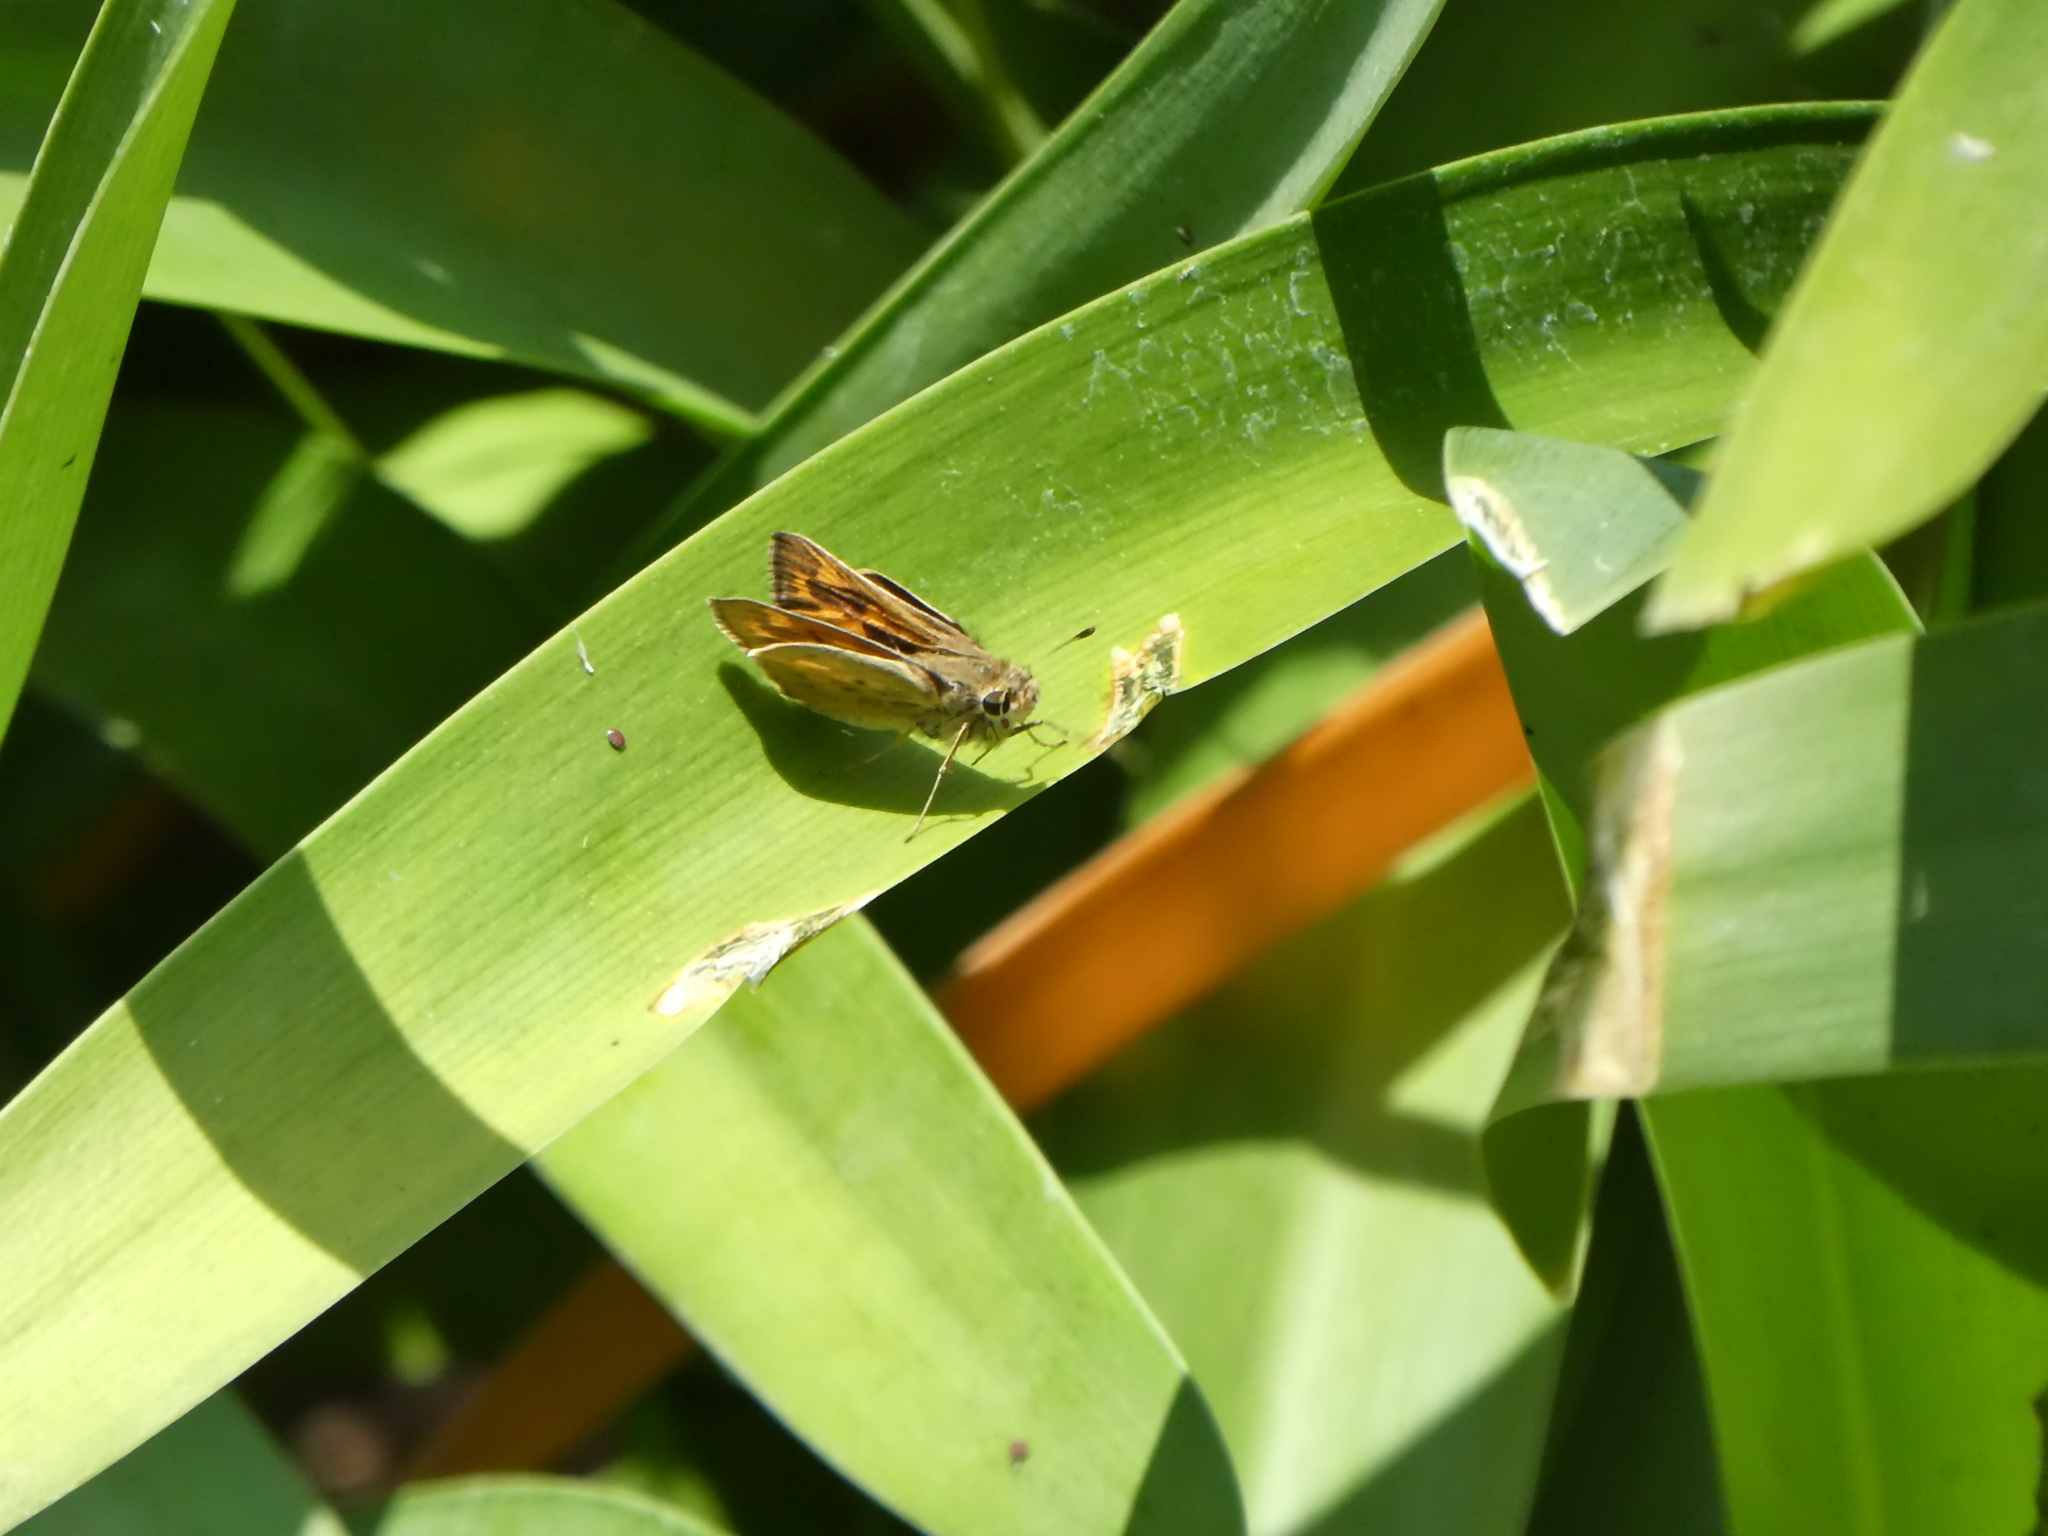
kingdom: Animalia
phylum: Arthropoda
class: Insecta
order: Lepidoptera
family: Hesperiidae
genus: Hylephila
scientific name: Hylephila phyleus
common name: Fiery skipper
